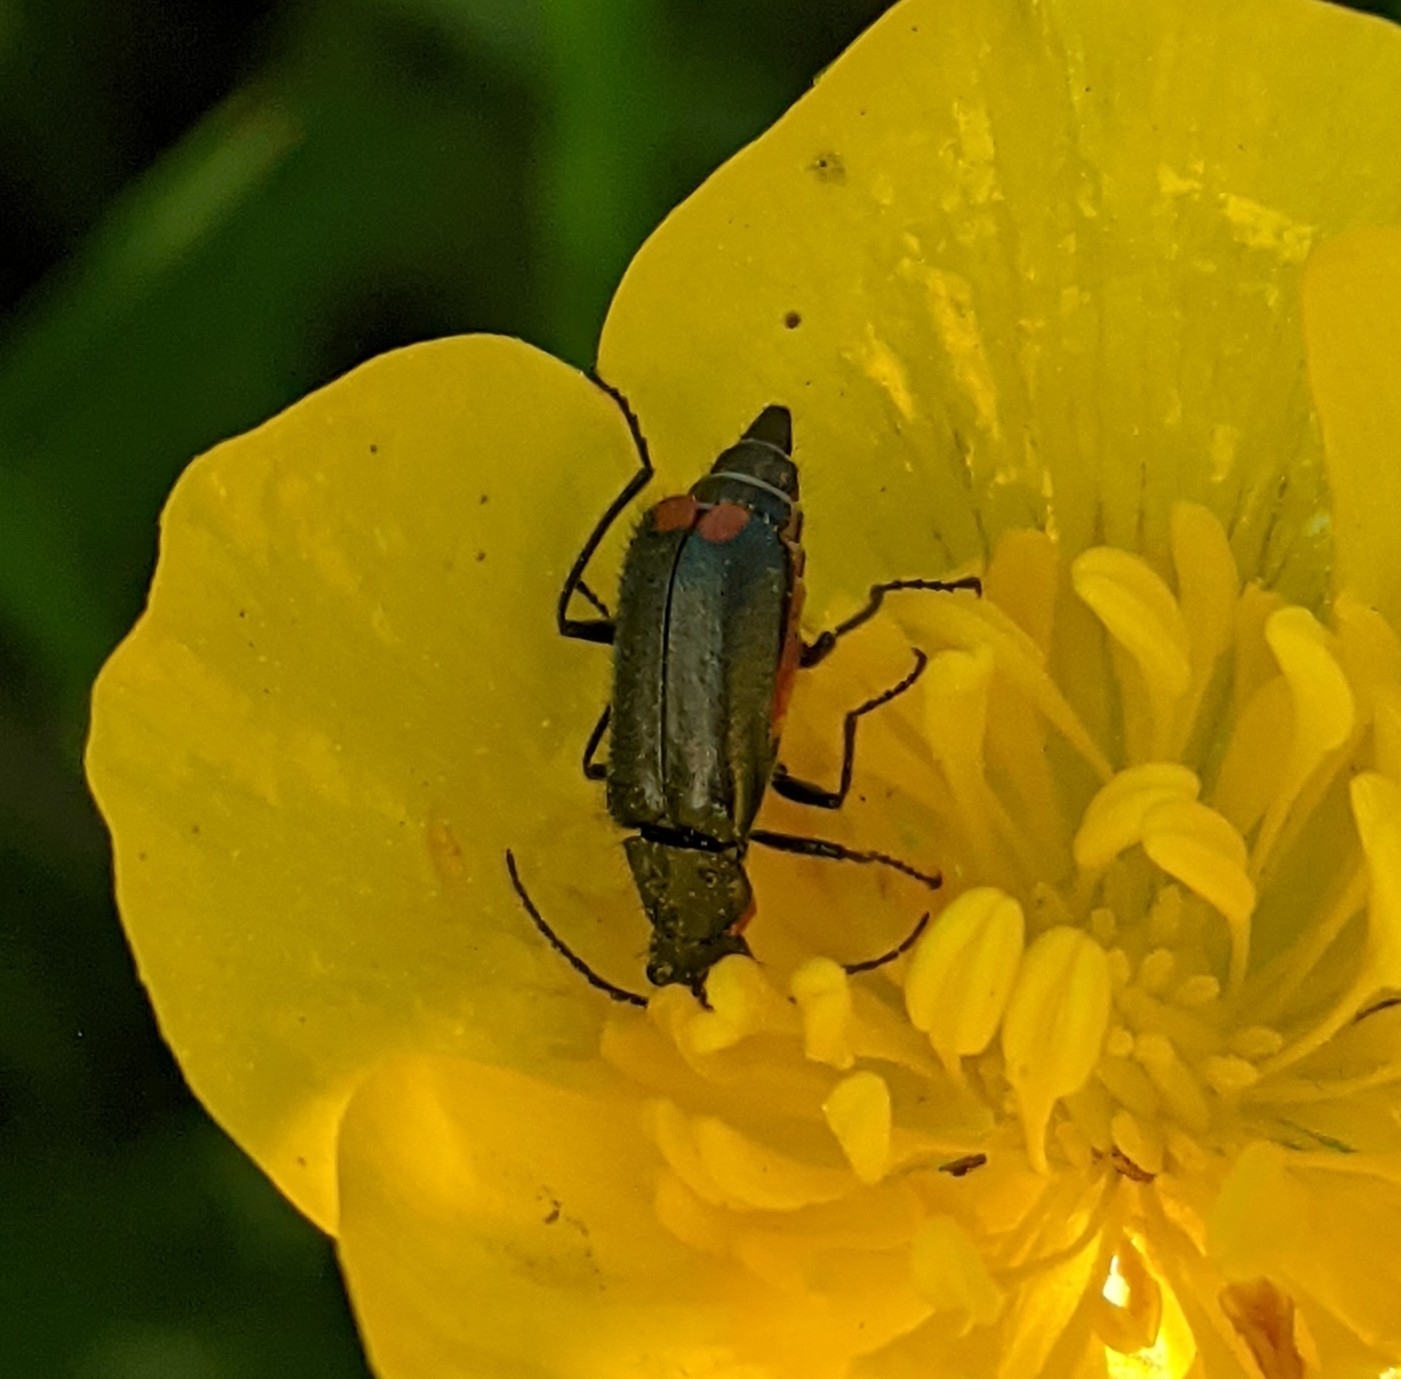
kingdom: Animalia
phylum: Arthropoda
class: Insecta
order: Coleoptera
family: Melyridae
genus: Malachius
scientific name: Malachius bipustulatus
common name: Malachite beetle
